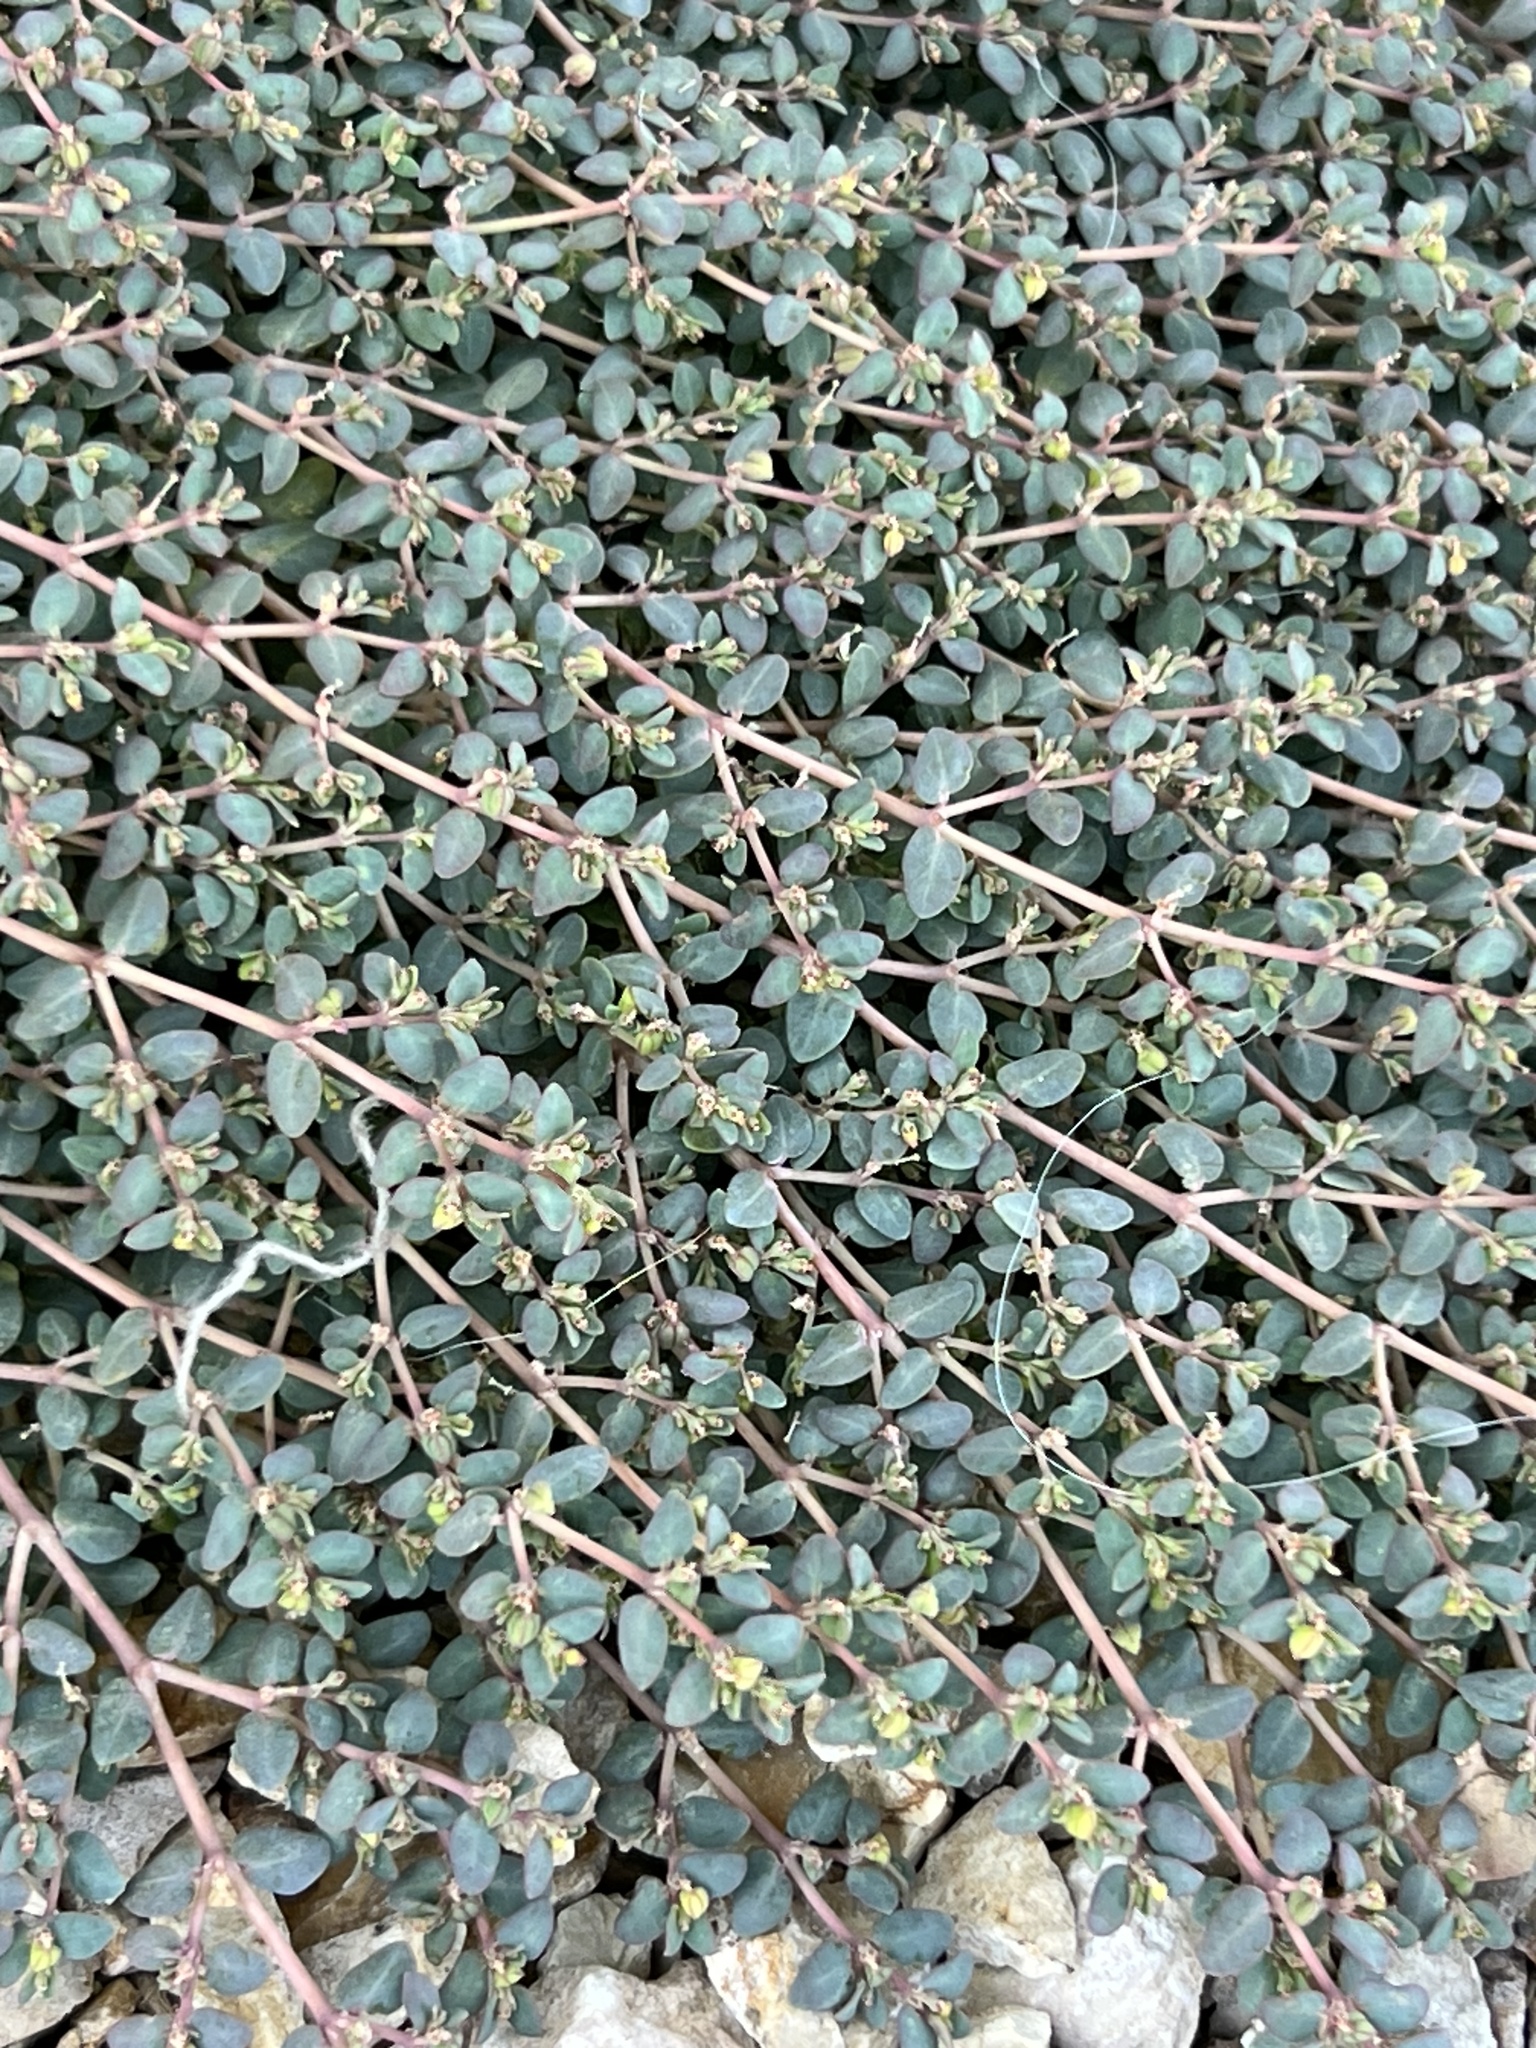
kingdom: Plantae
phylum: Tracheophyta
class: Magnoliopsida
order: Malpighiales
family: Euphorbiaceae
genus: Euphorbia
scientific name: Euphorbia micromera
